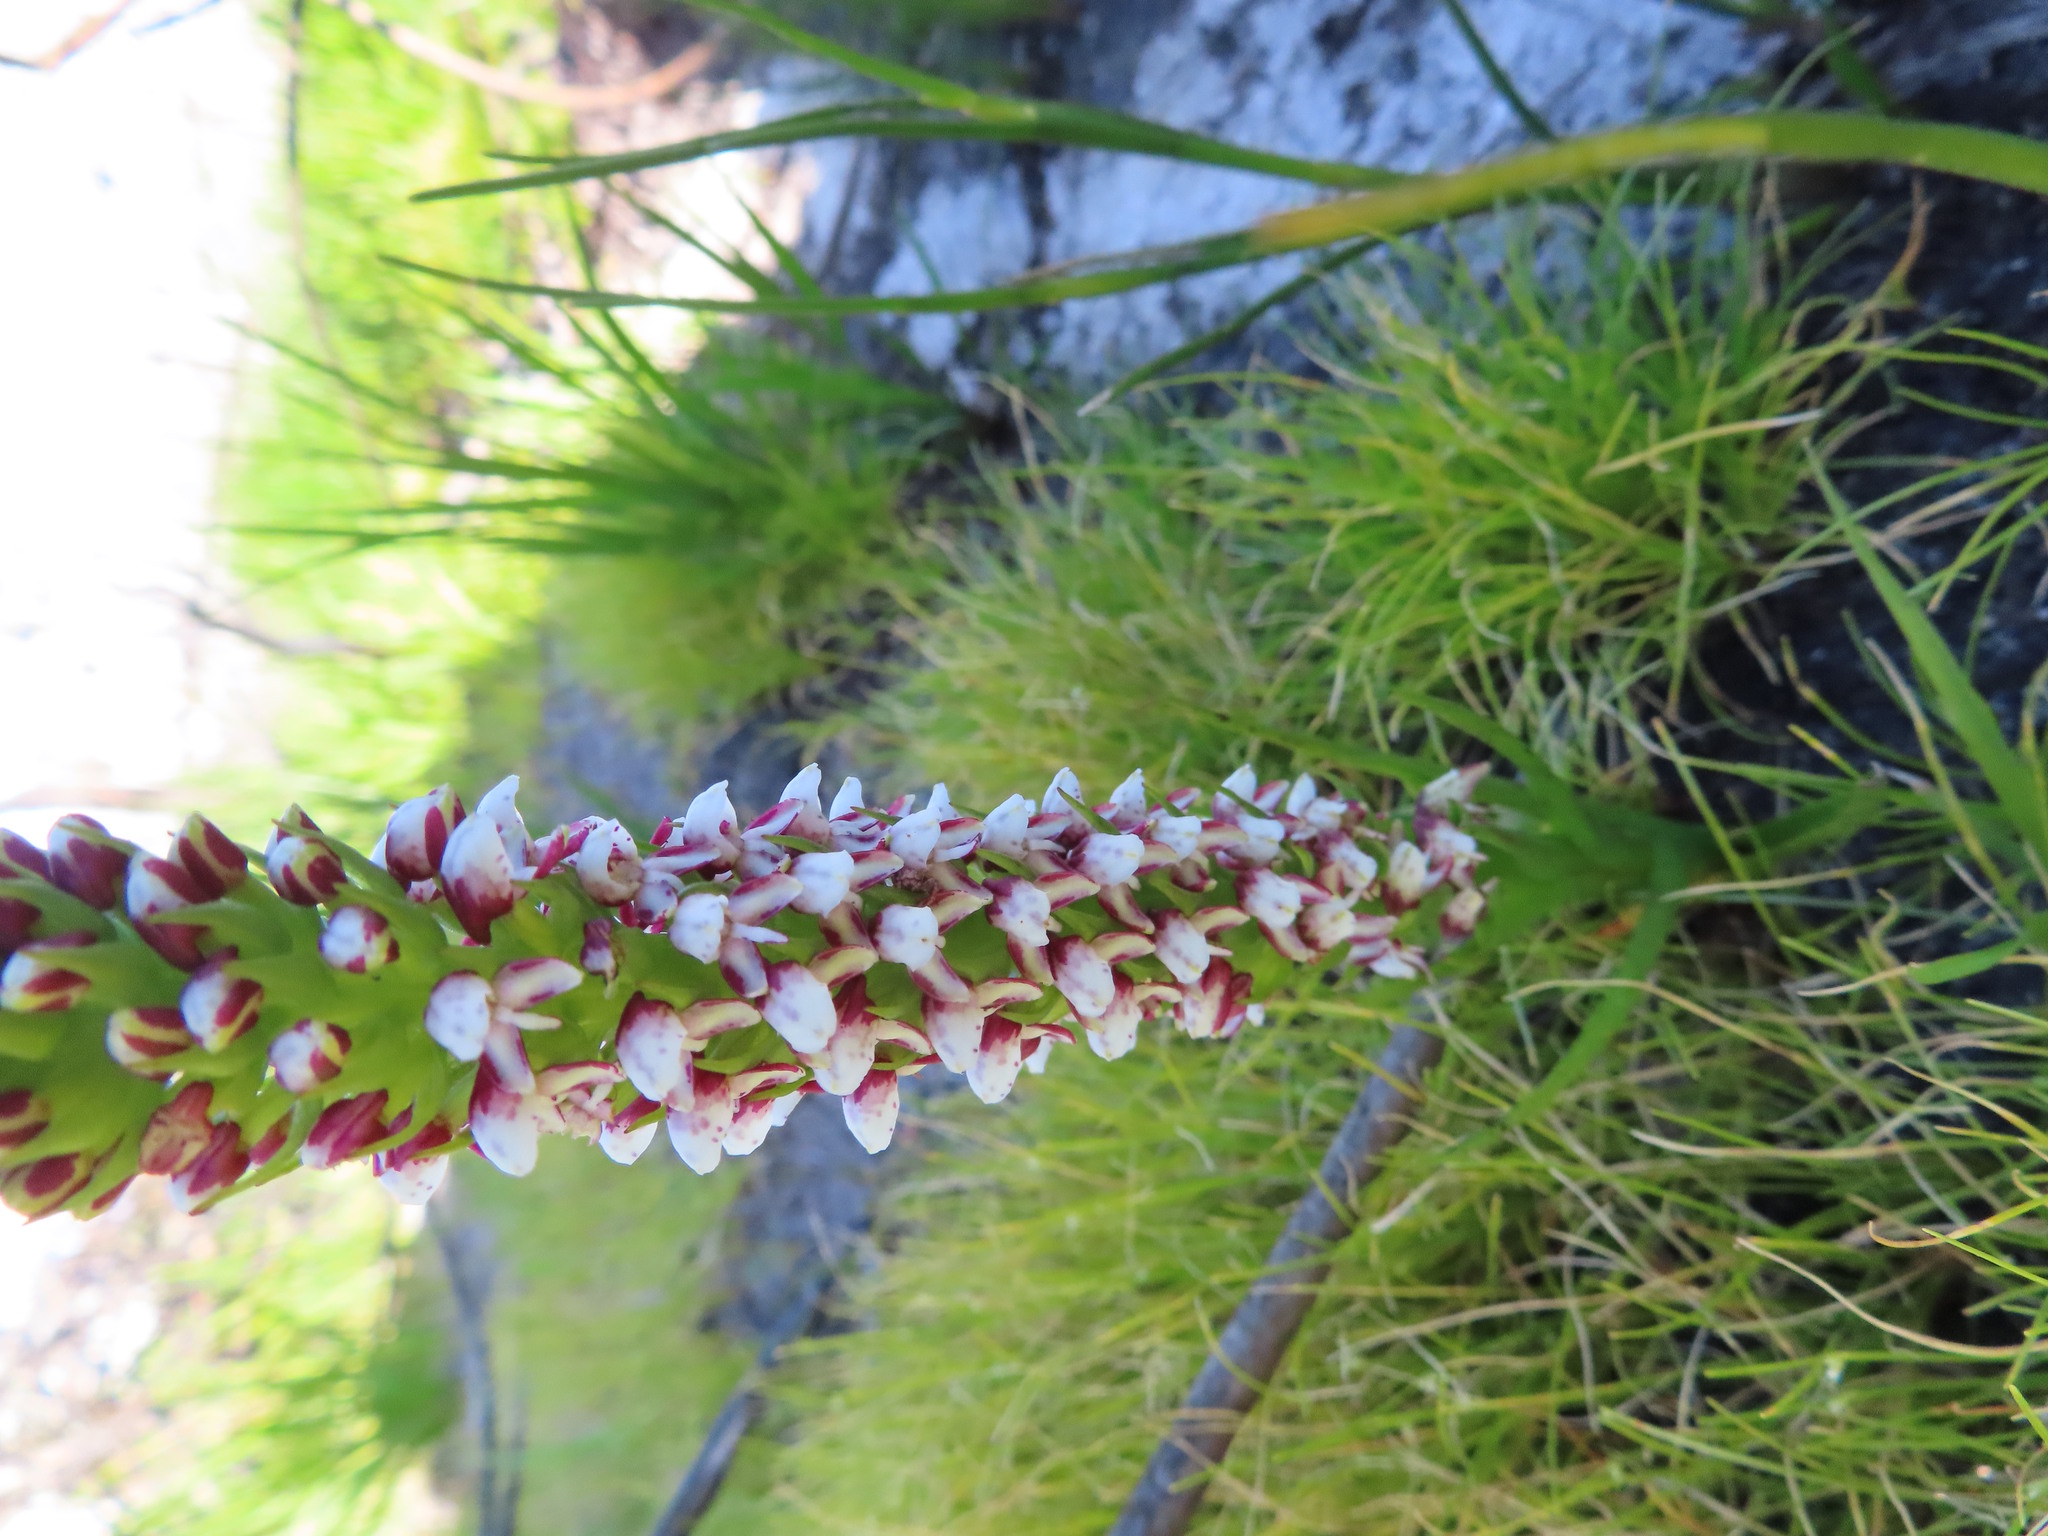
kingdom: Plantae
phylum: Tracheophyta
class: Liliopsida
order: Asparagales
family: Orchidaceae
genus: Disa
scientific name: Disa obtusa
